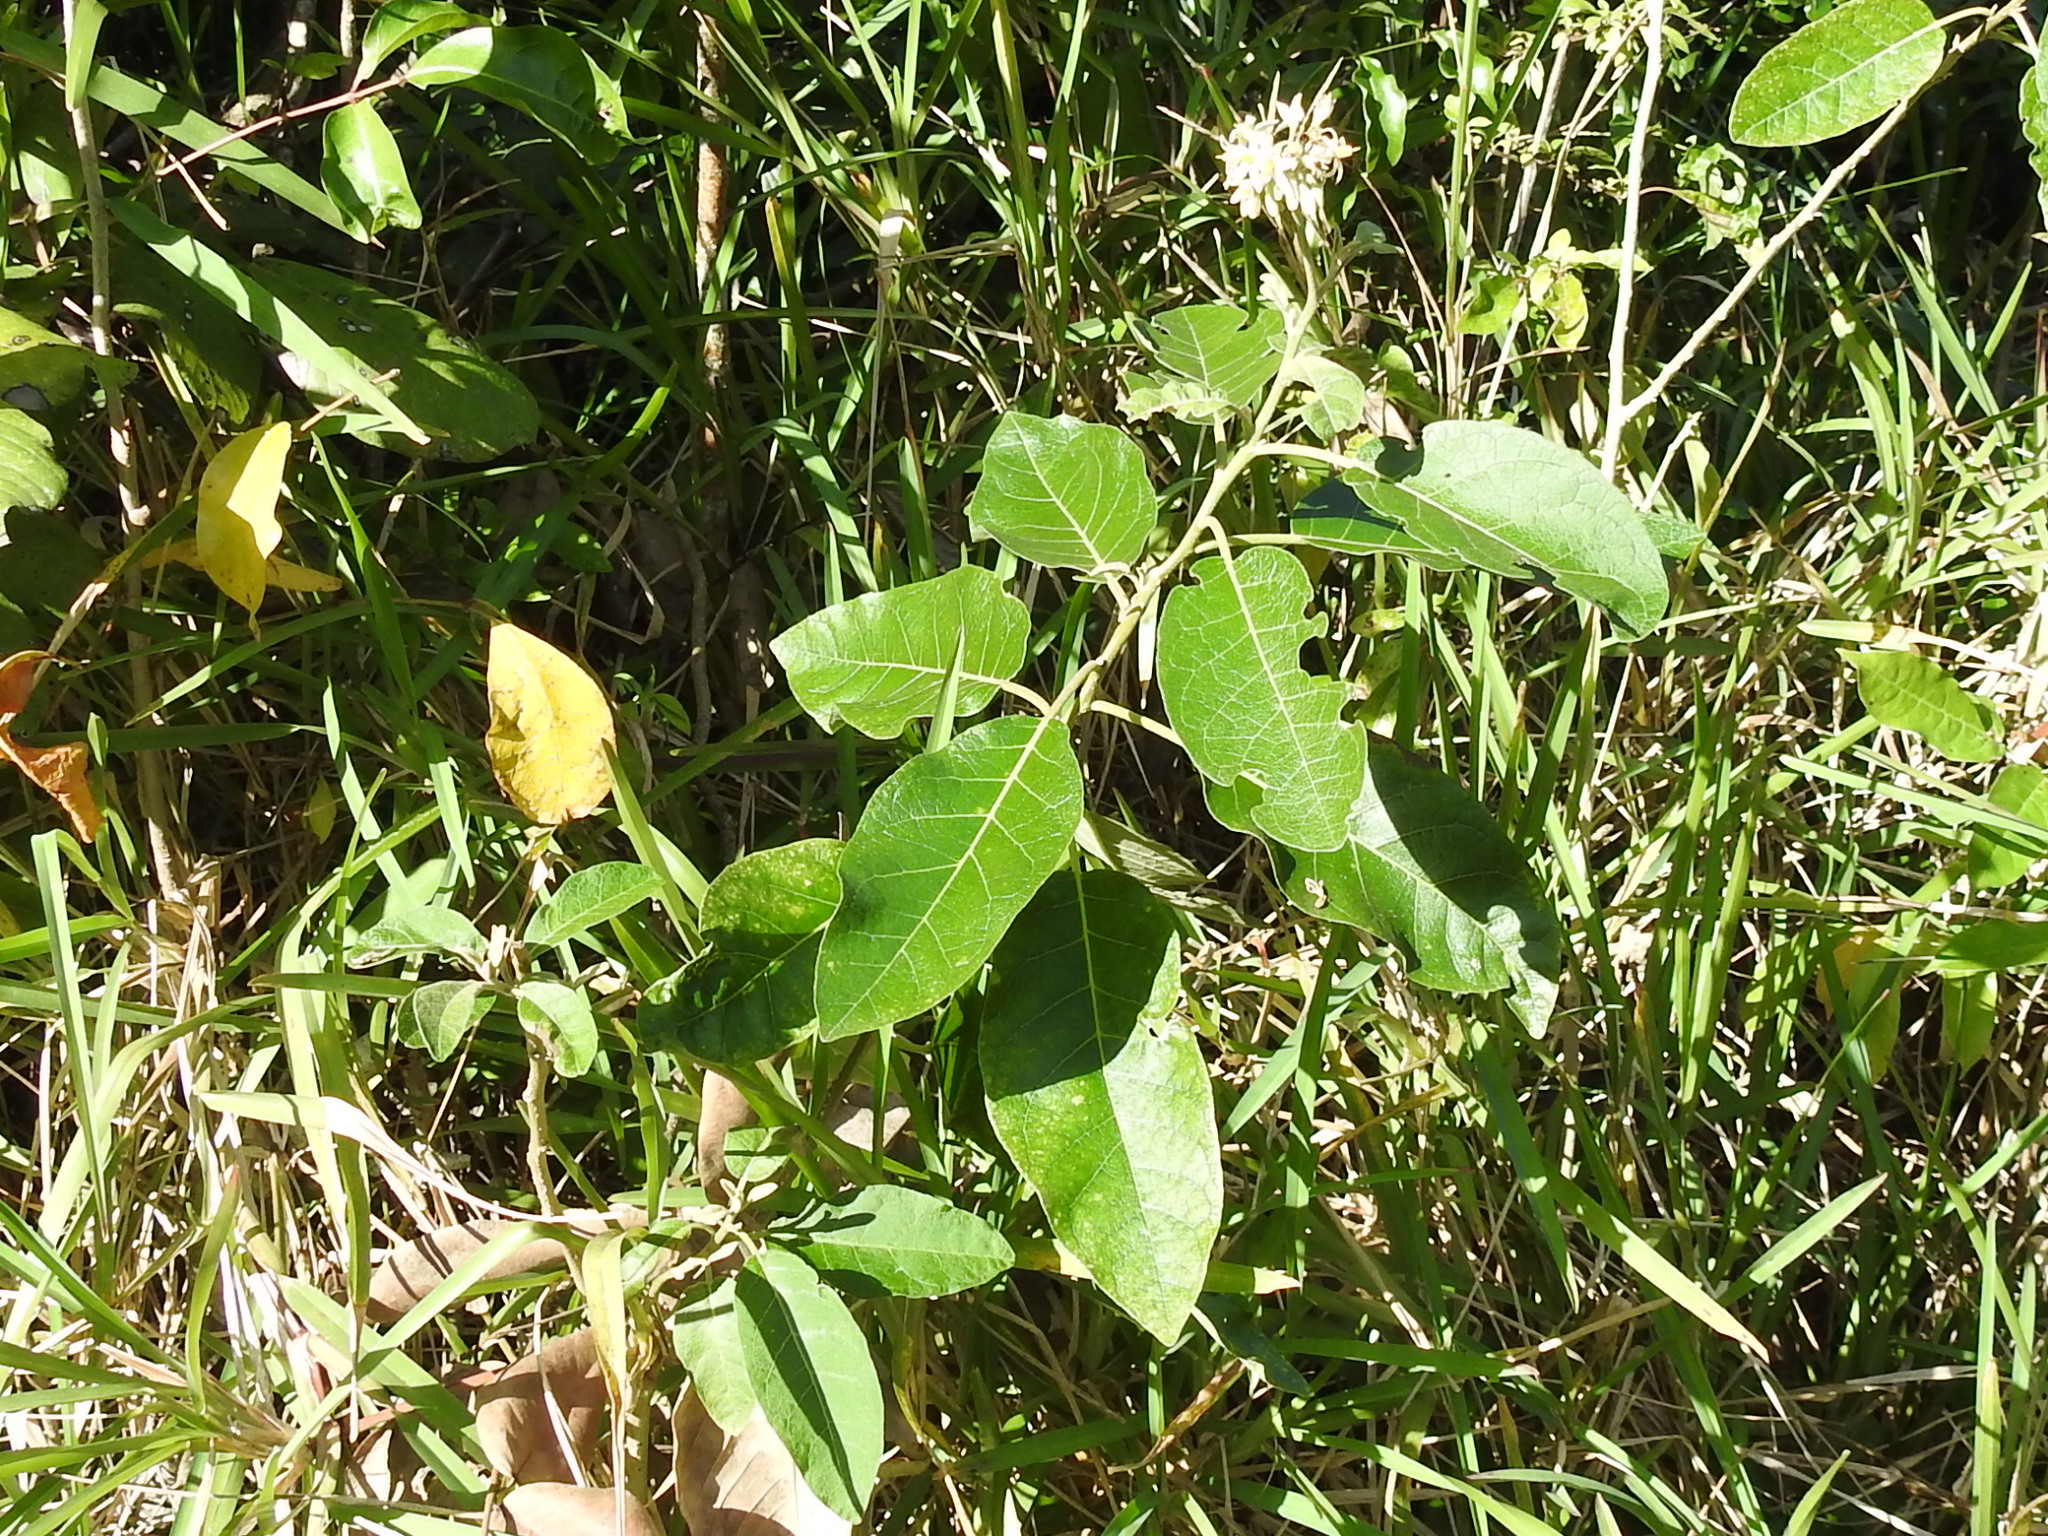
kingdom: Plantae
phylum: Tracheophyta
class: Magnoliopsida
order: Solanales
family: Solanaceae
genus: Solanum
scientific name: Solanum donianum
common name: Mullein nightshade
